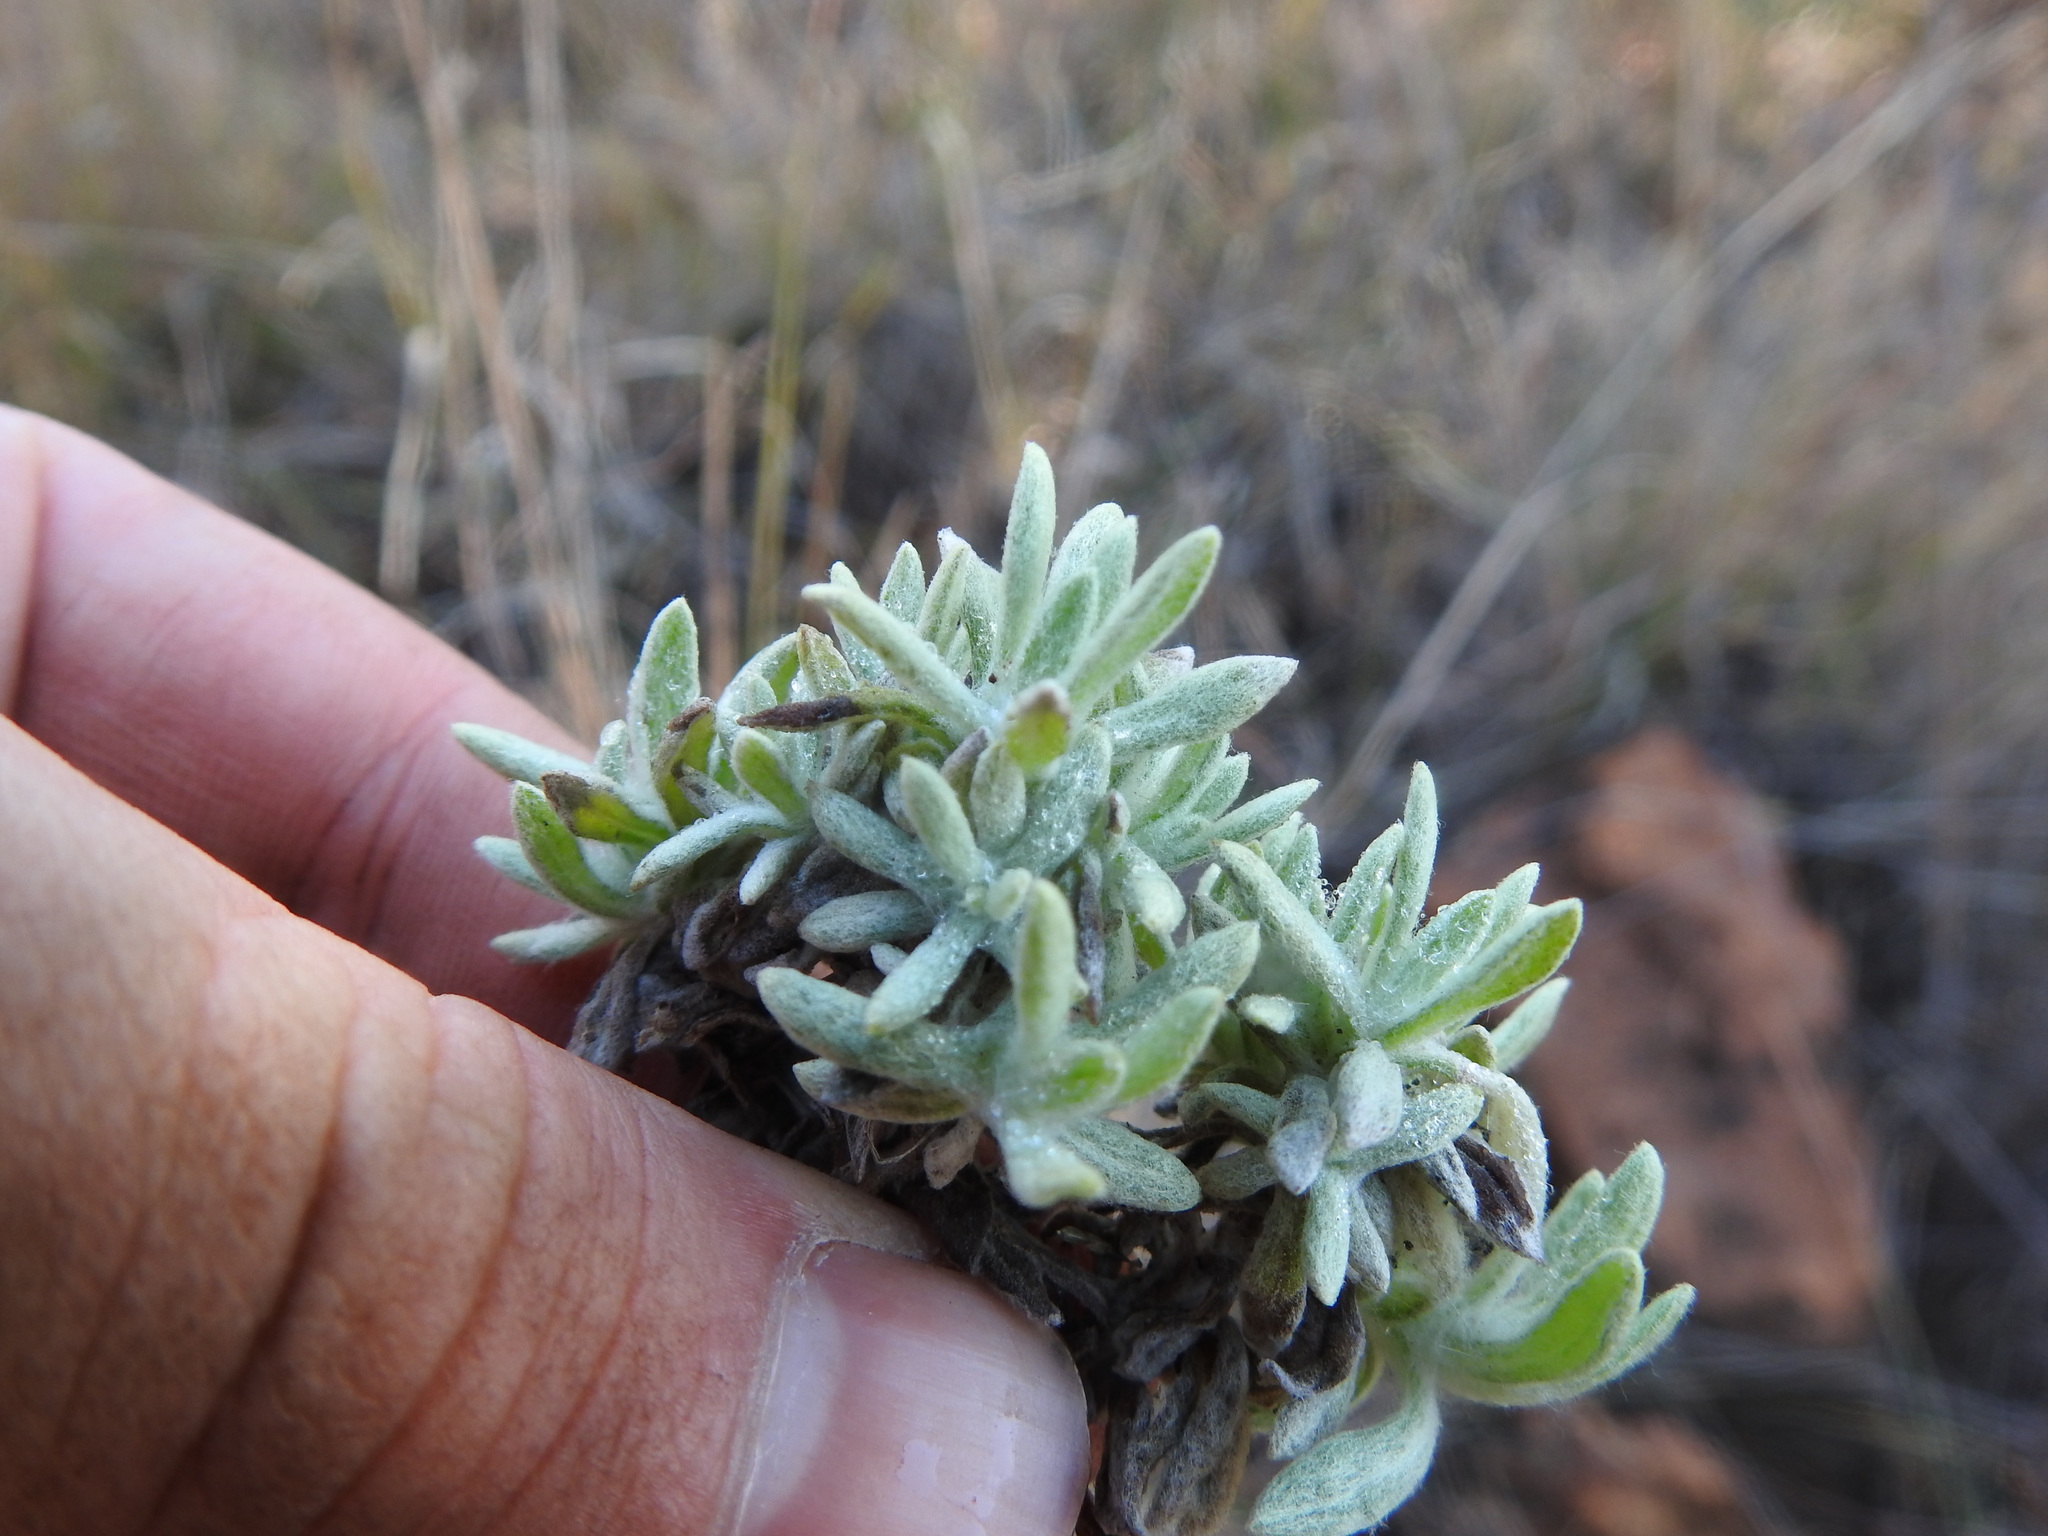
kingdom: Plantae
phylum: Tracheophyta
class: Magnoliopsida
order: Asterales
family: Asteraceae
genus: Helichrysum
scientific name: Helichrysum cerastioides
